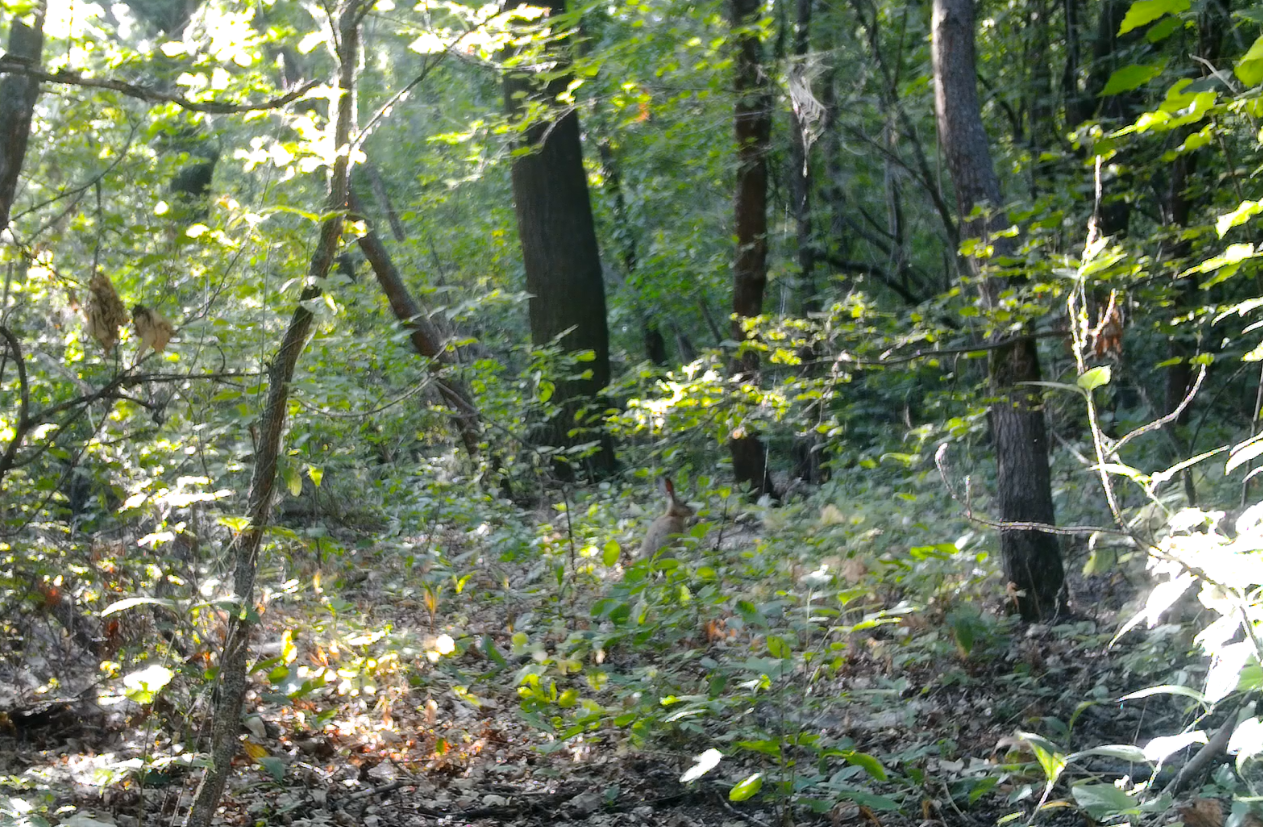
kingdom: Animalia
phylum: Chordata
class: Mammalia
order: Lagomorpha
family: Leporidae
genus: Lepus
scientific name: Lepus europaeus
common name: European hare
